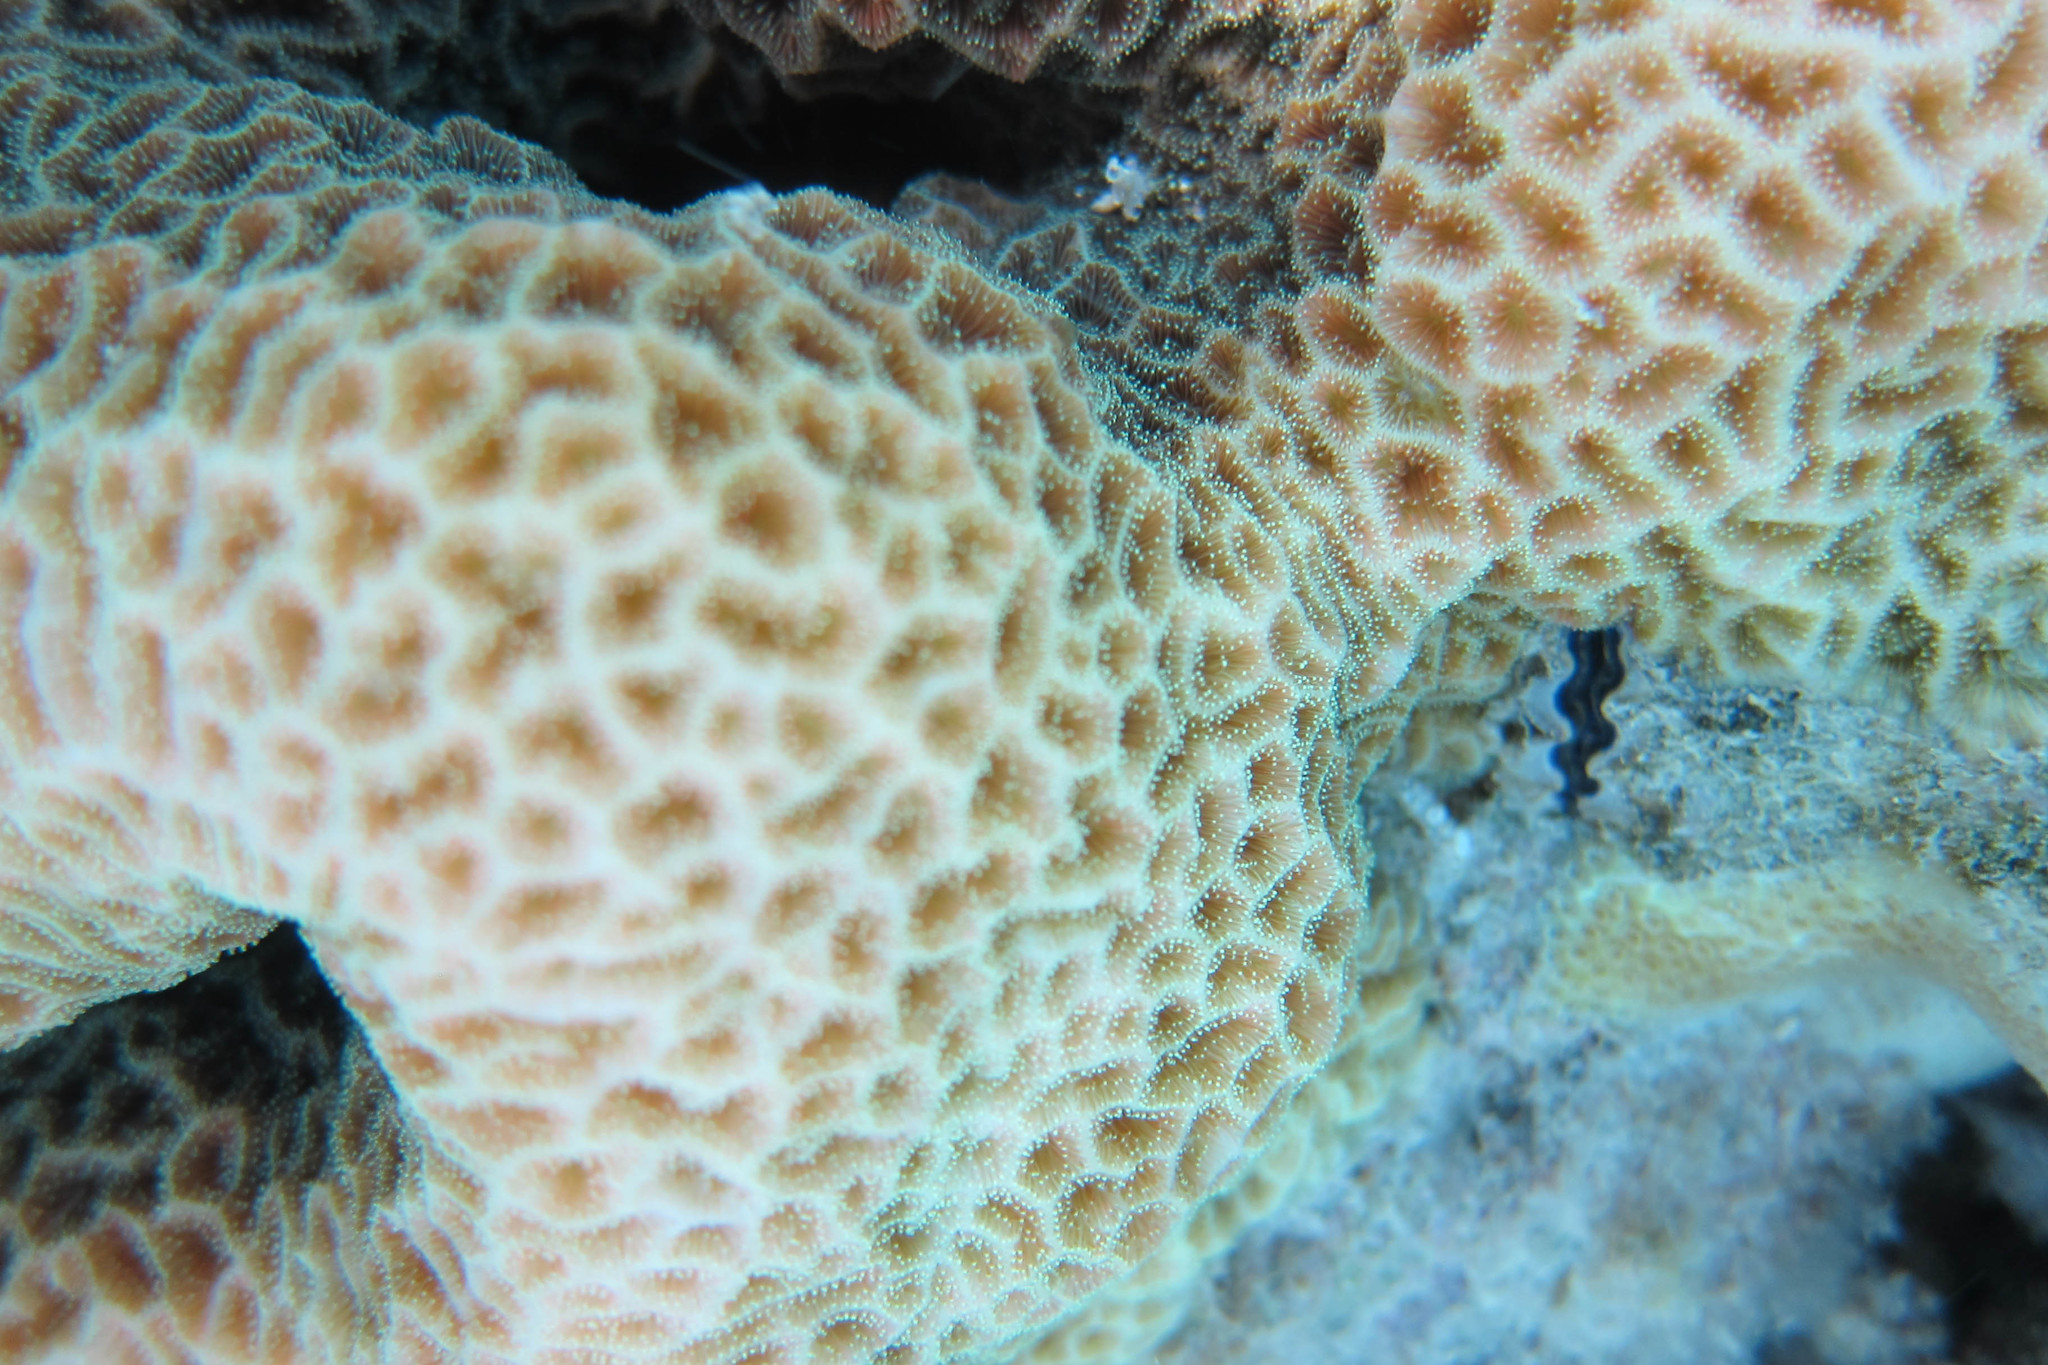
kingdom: Animalia
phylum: Cnidaria
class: Anthozoa
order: Scleractinia
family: Agariciidae
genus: Pavona
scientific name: Pavona venosa
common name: Leaf coral
